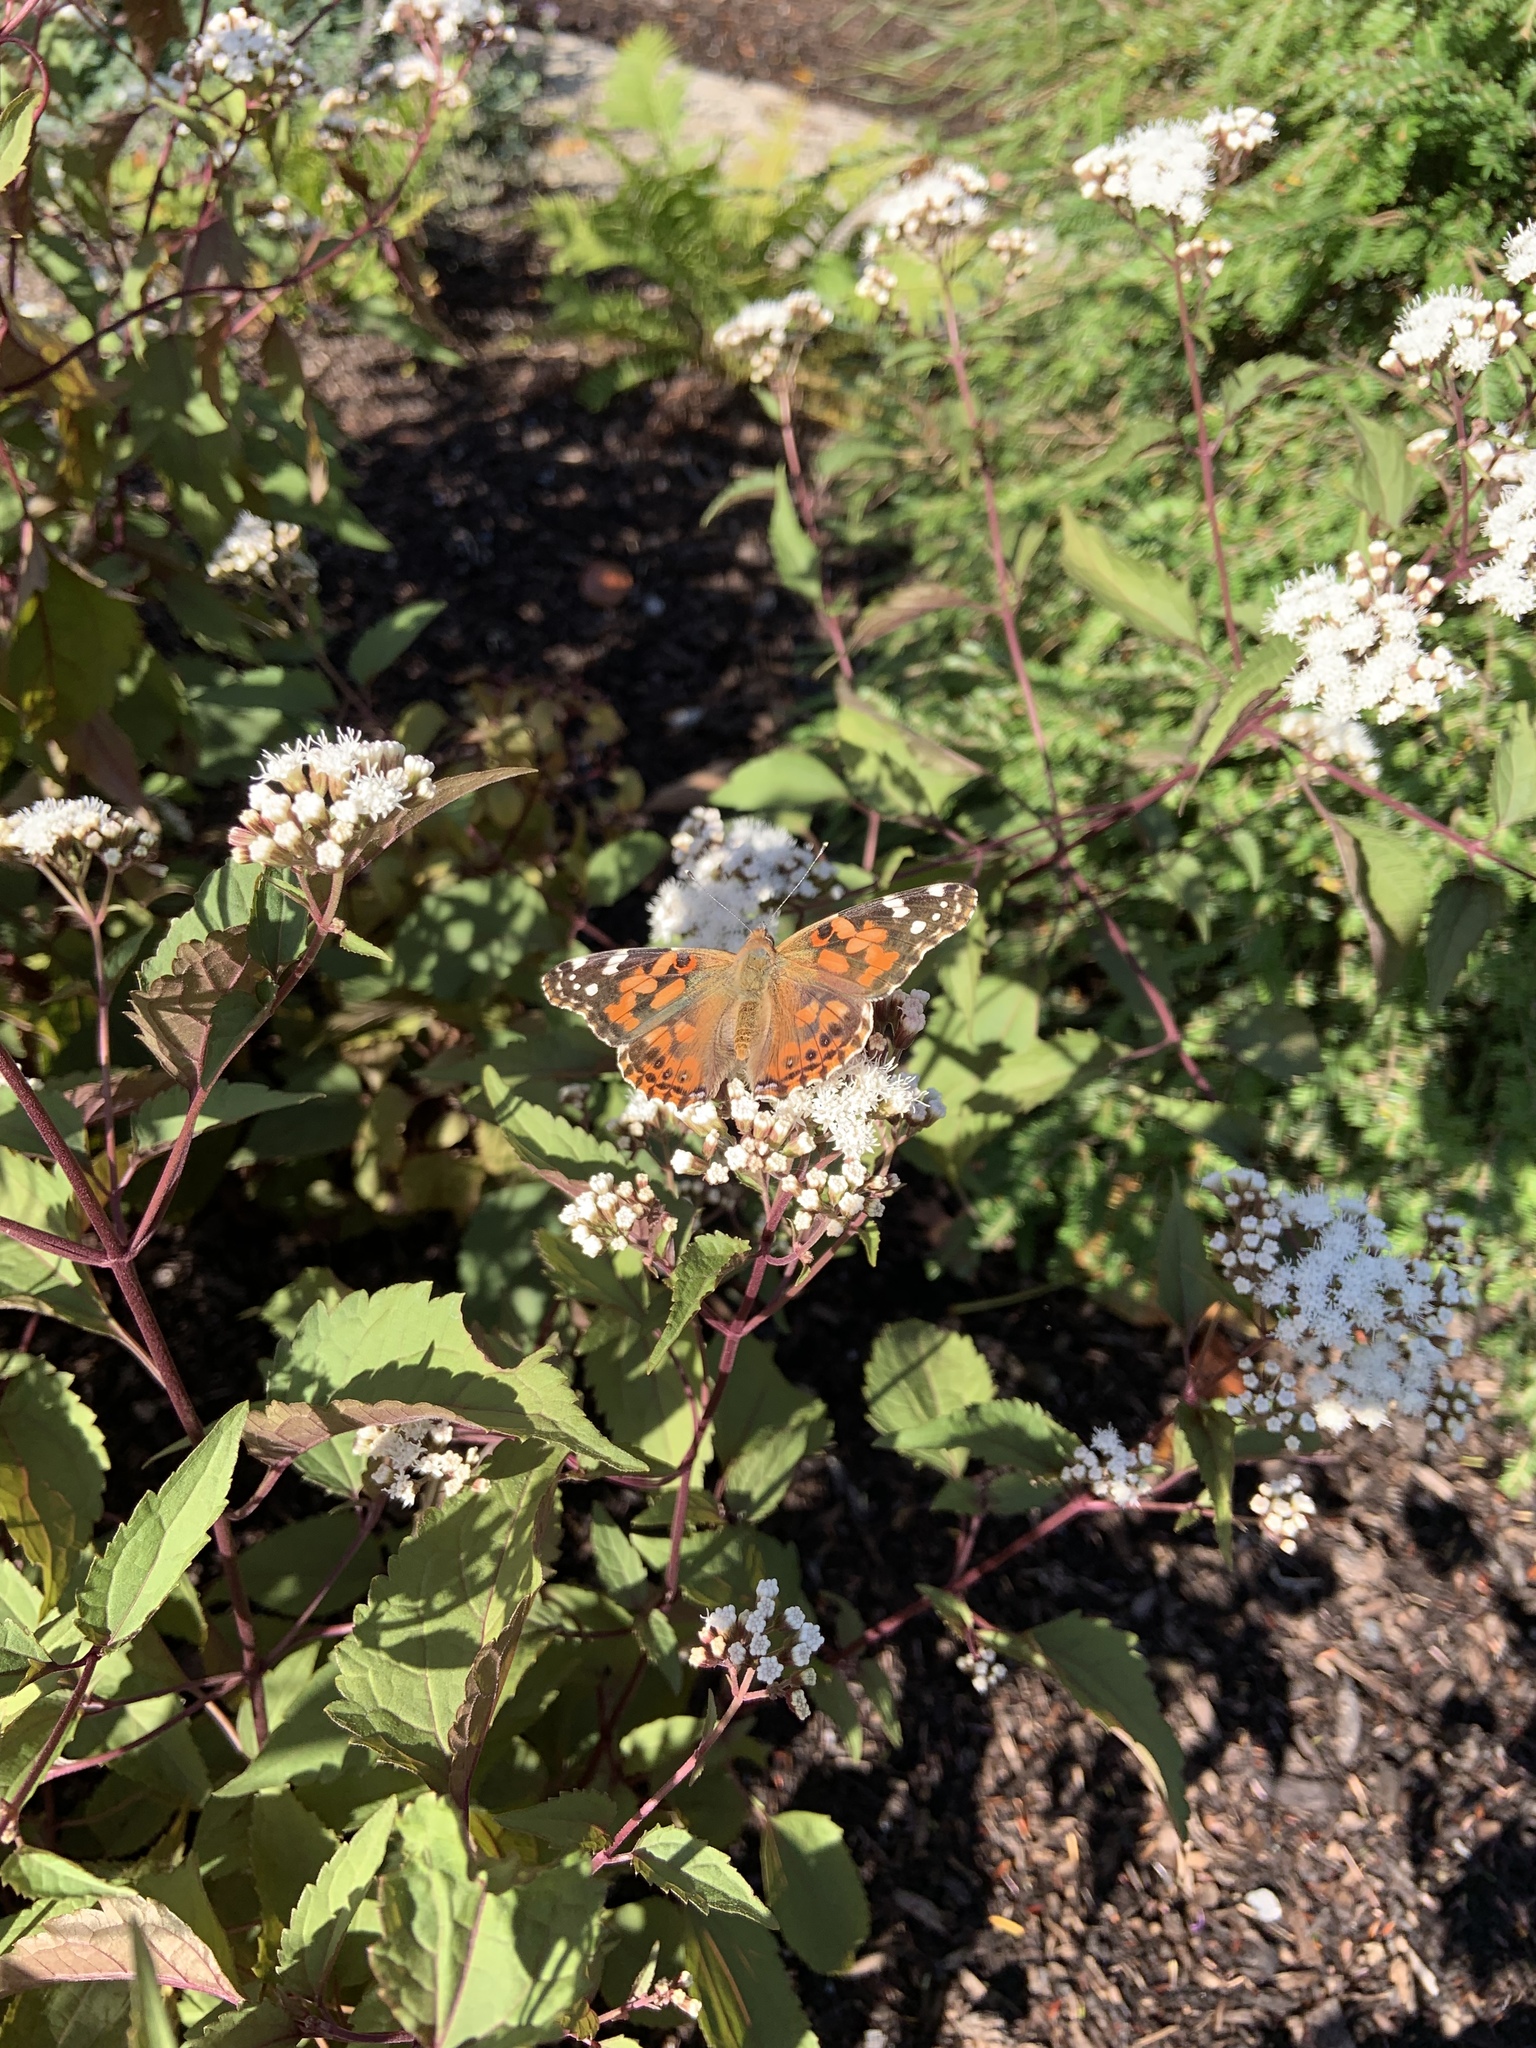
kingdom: Animalia
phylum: Arthropoda
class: Insecta
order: Lepidoptera
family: Nymphalidae
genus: Vanessa
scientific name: Vanessa cardui
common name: Painted lady
